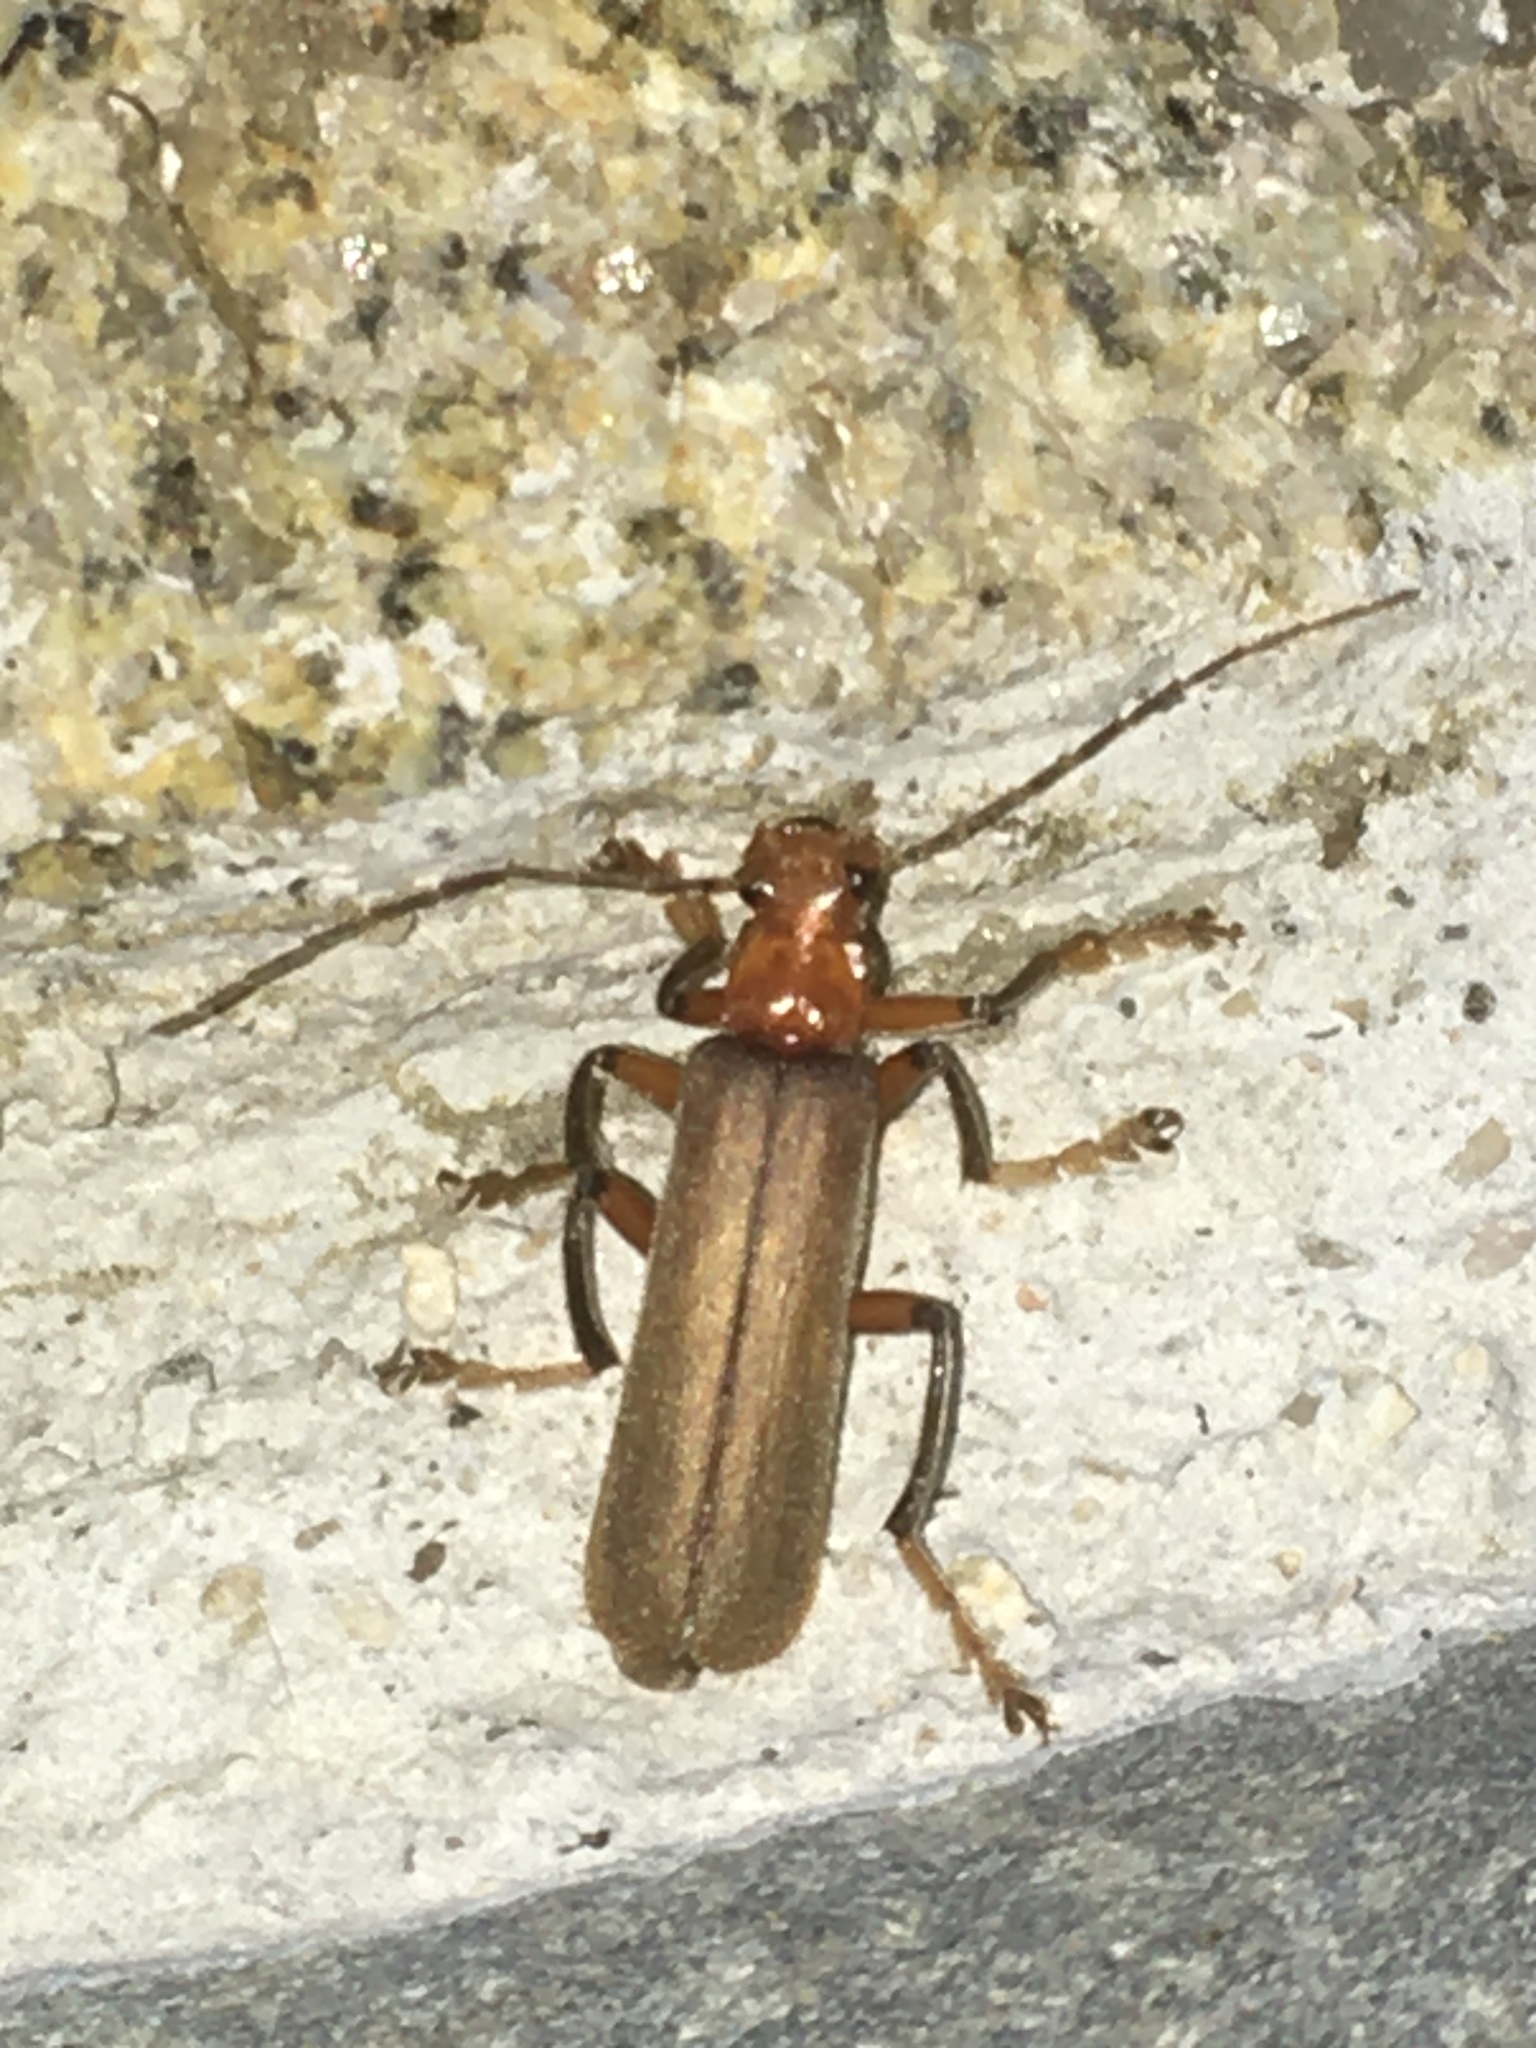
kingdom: Animalia
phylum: Arthropoda
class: Insecta
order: Coleoptera
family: Cantharidae
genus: Pacificanthia
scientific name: Pacificanthia consors
